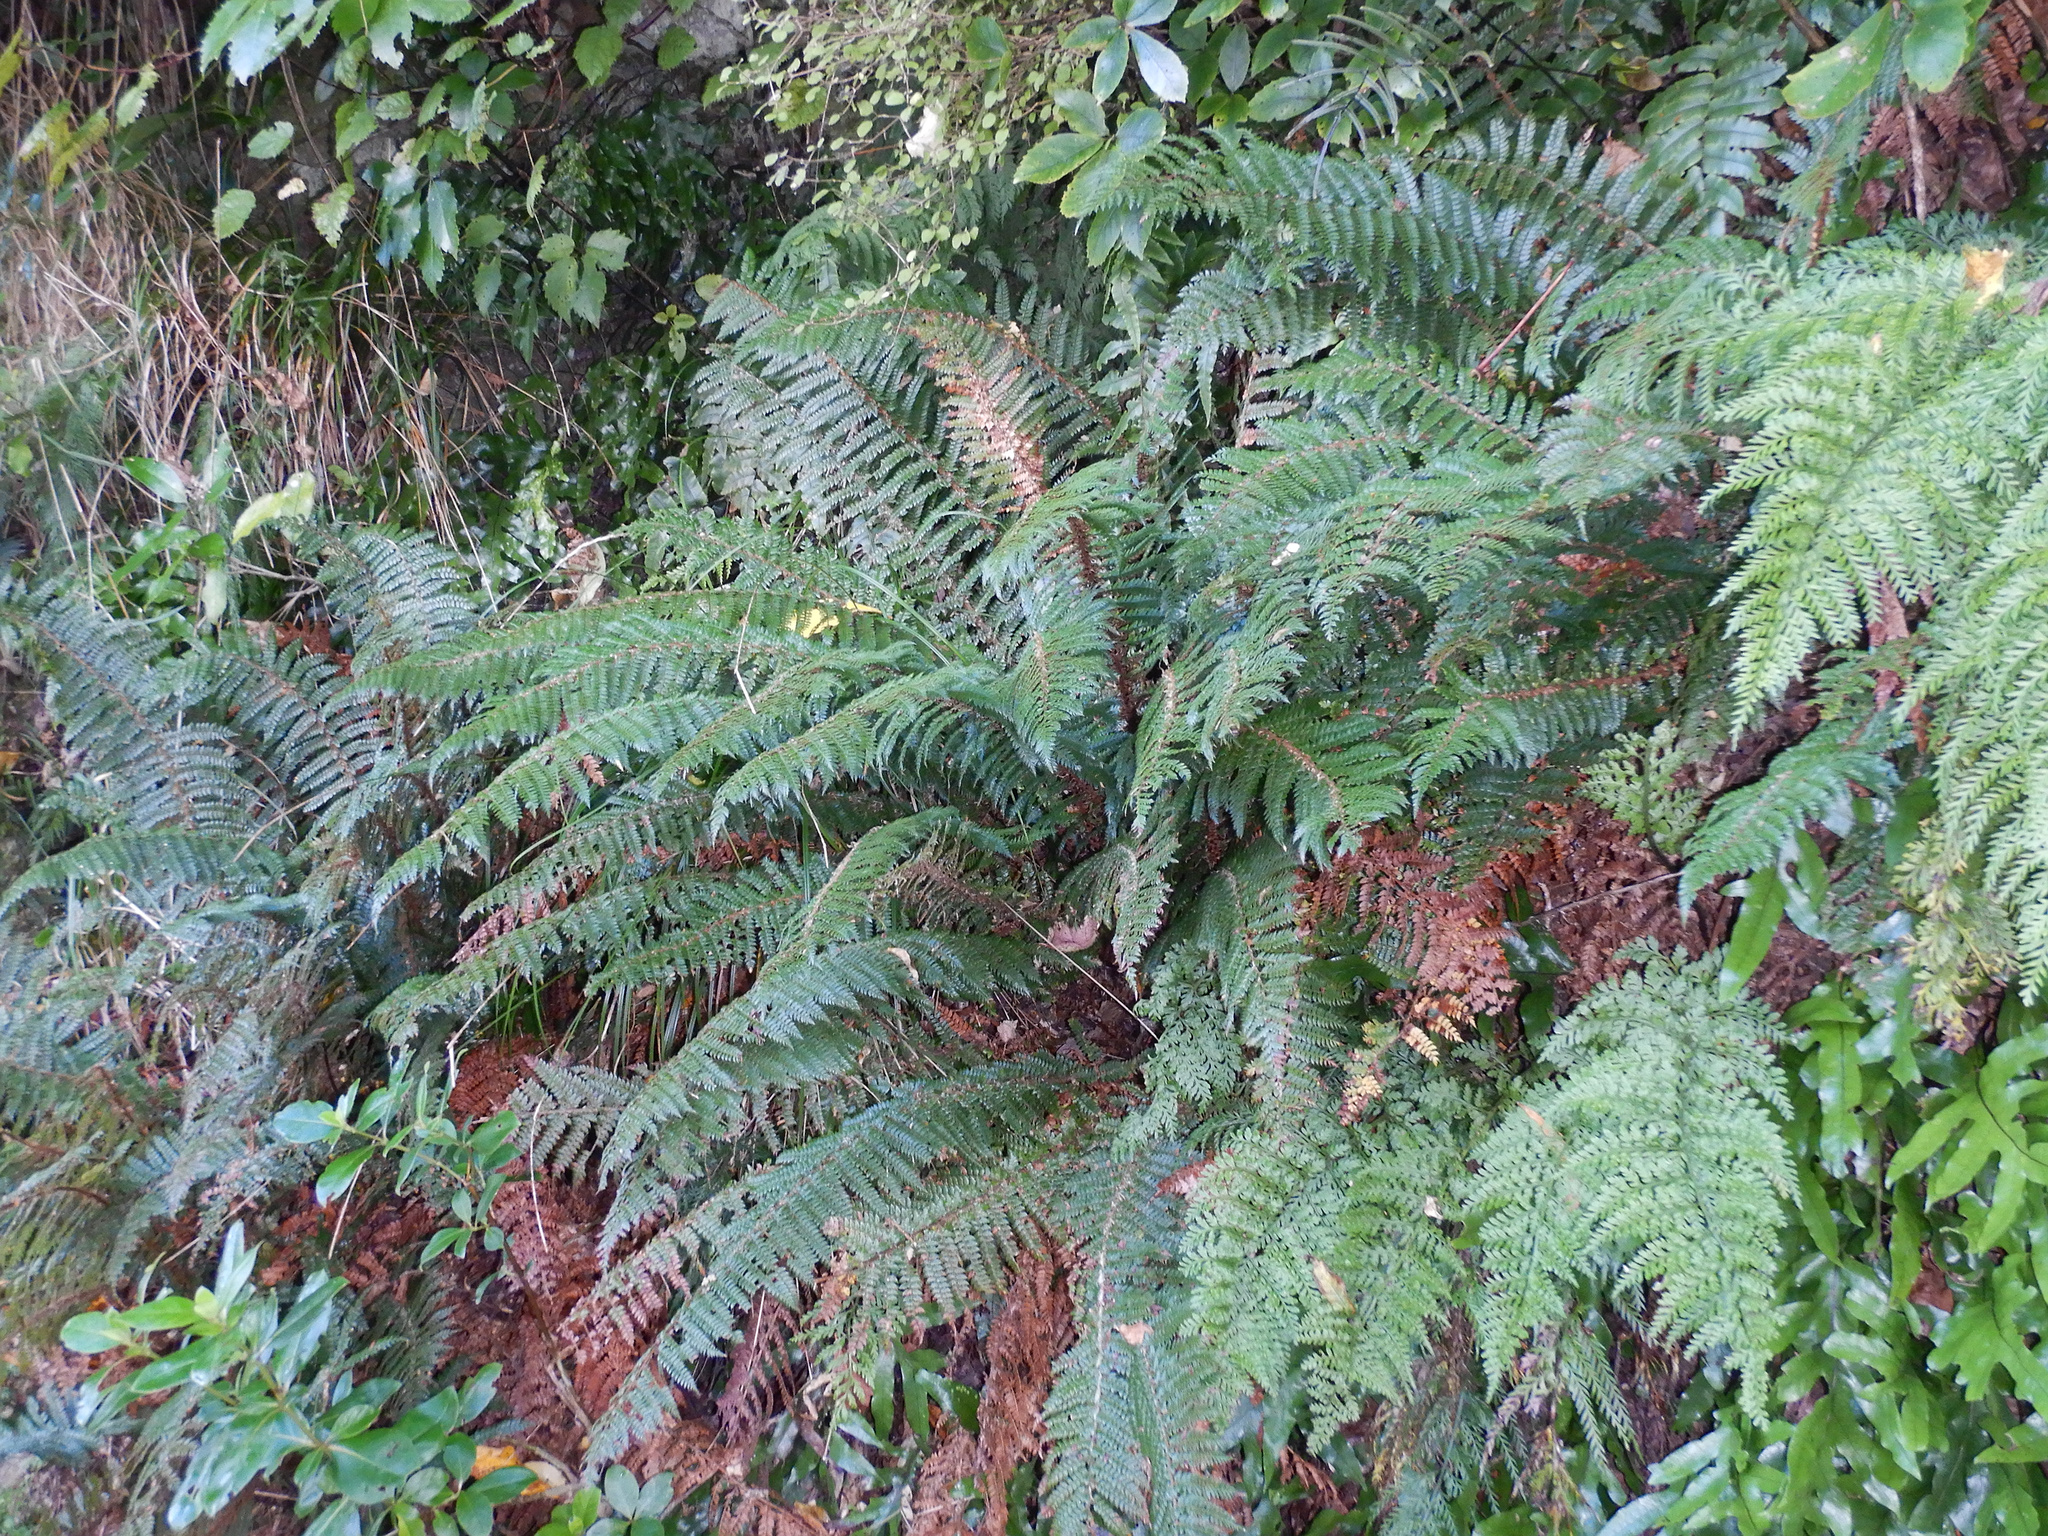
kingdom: Plantae
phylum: Tracheophyta
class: Polypodiopsida
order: Polypodiales
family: Dryopteridaceae
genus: Polystichum
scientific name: Polystichum vestitum
